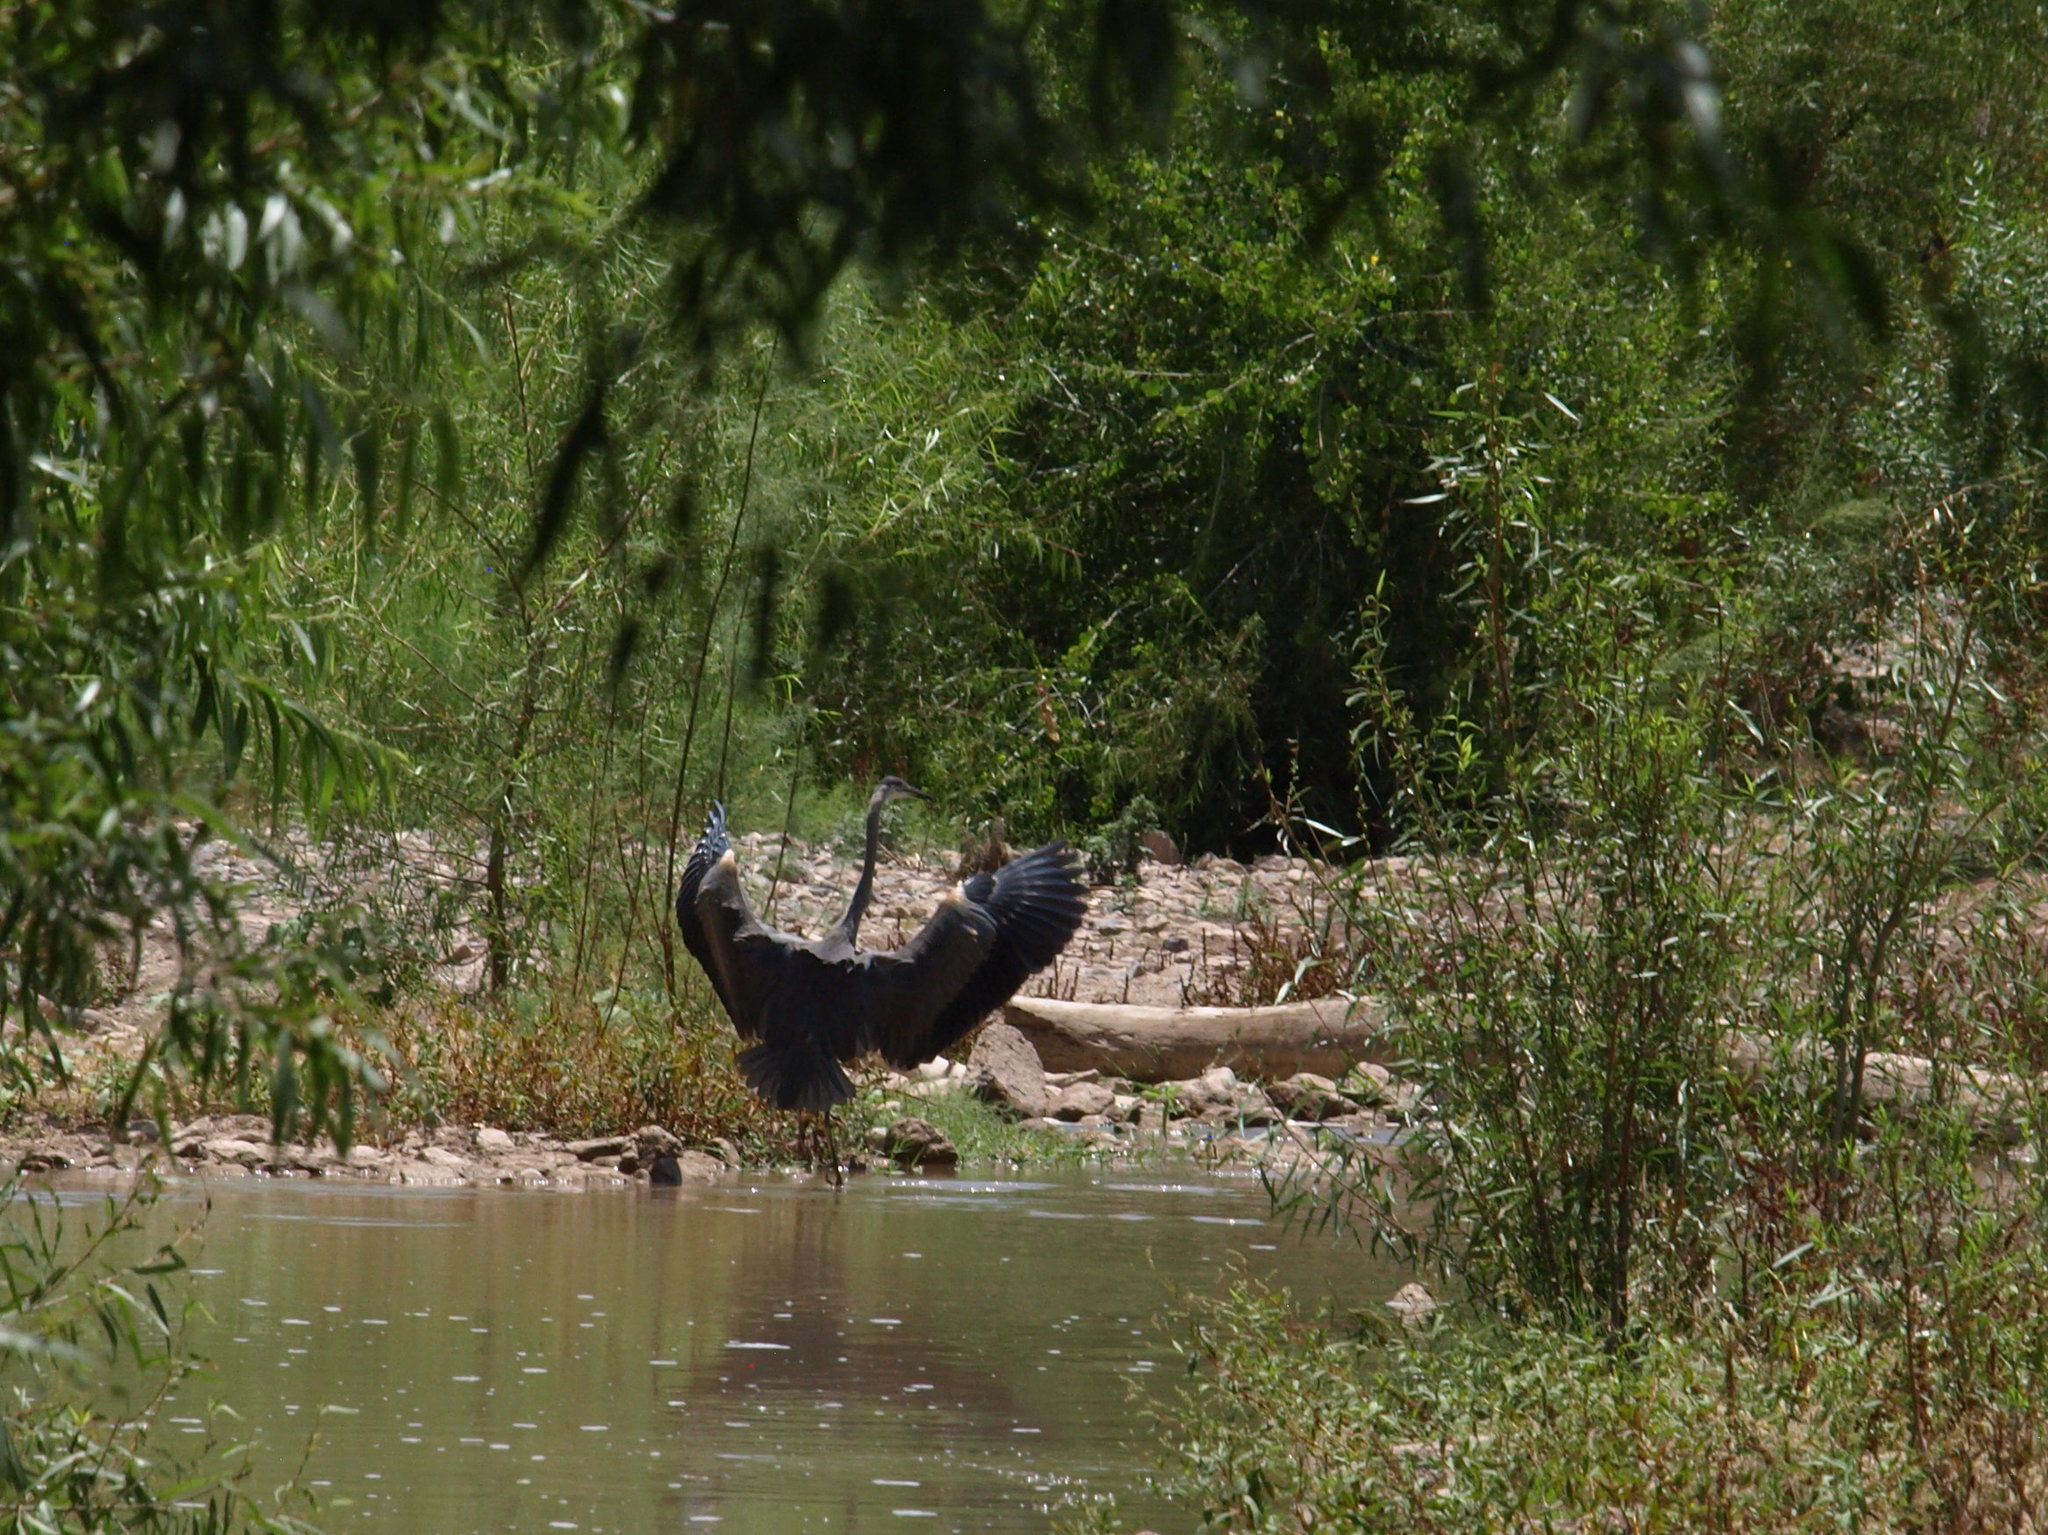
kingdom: Animalia
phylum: Chordata
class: Aves
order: Pelecaniformes
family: Ardeidae
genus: Ardea
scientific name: Ardea herodias
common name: Great blue heron
